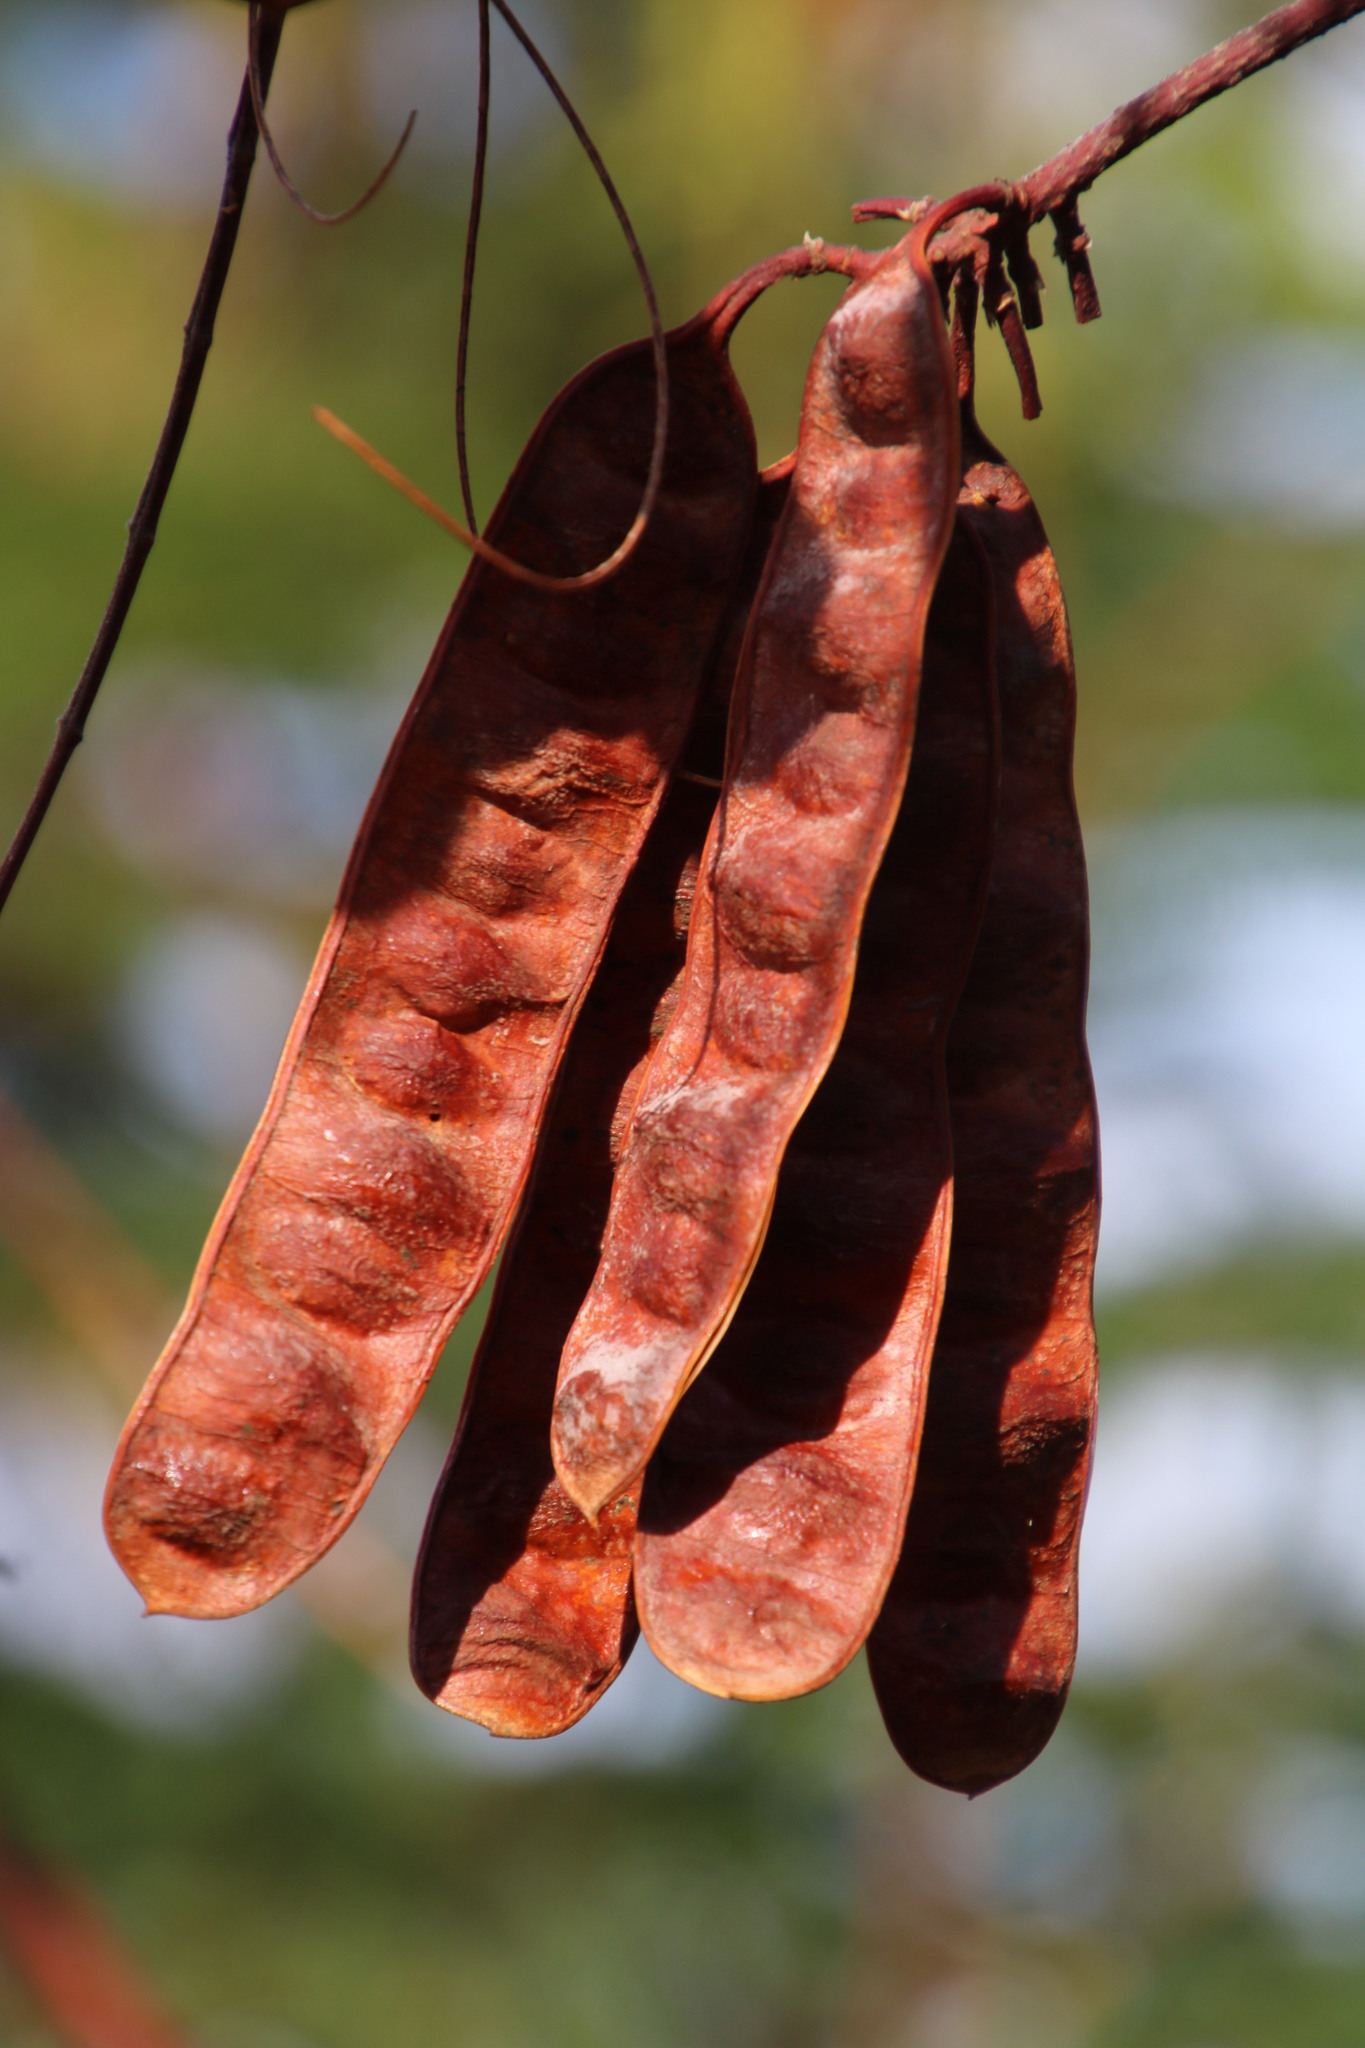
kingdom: Plantae
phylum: Tracheophyta
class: Magnoliopsida
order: Fabales
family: Fabaceae
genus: Paraserianthes
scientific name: Paraserianthes lophantha
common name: Plume albizia
